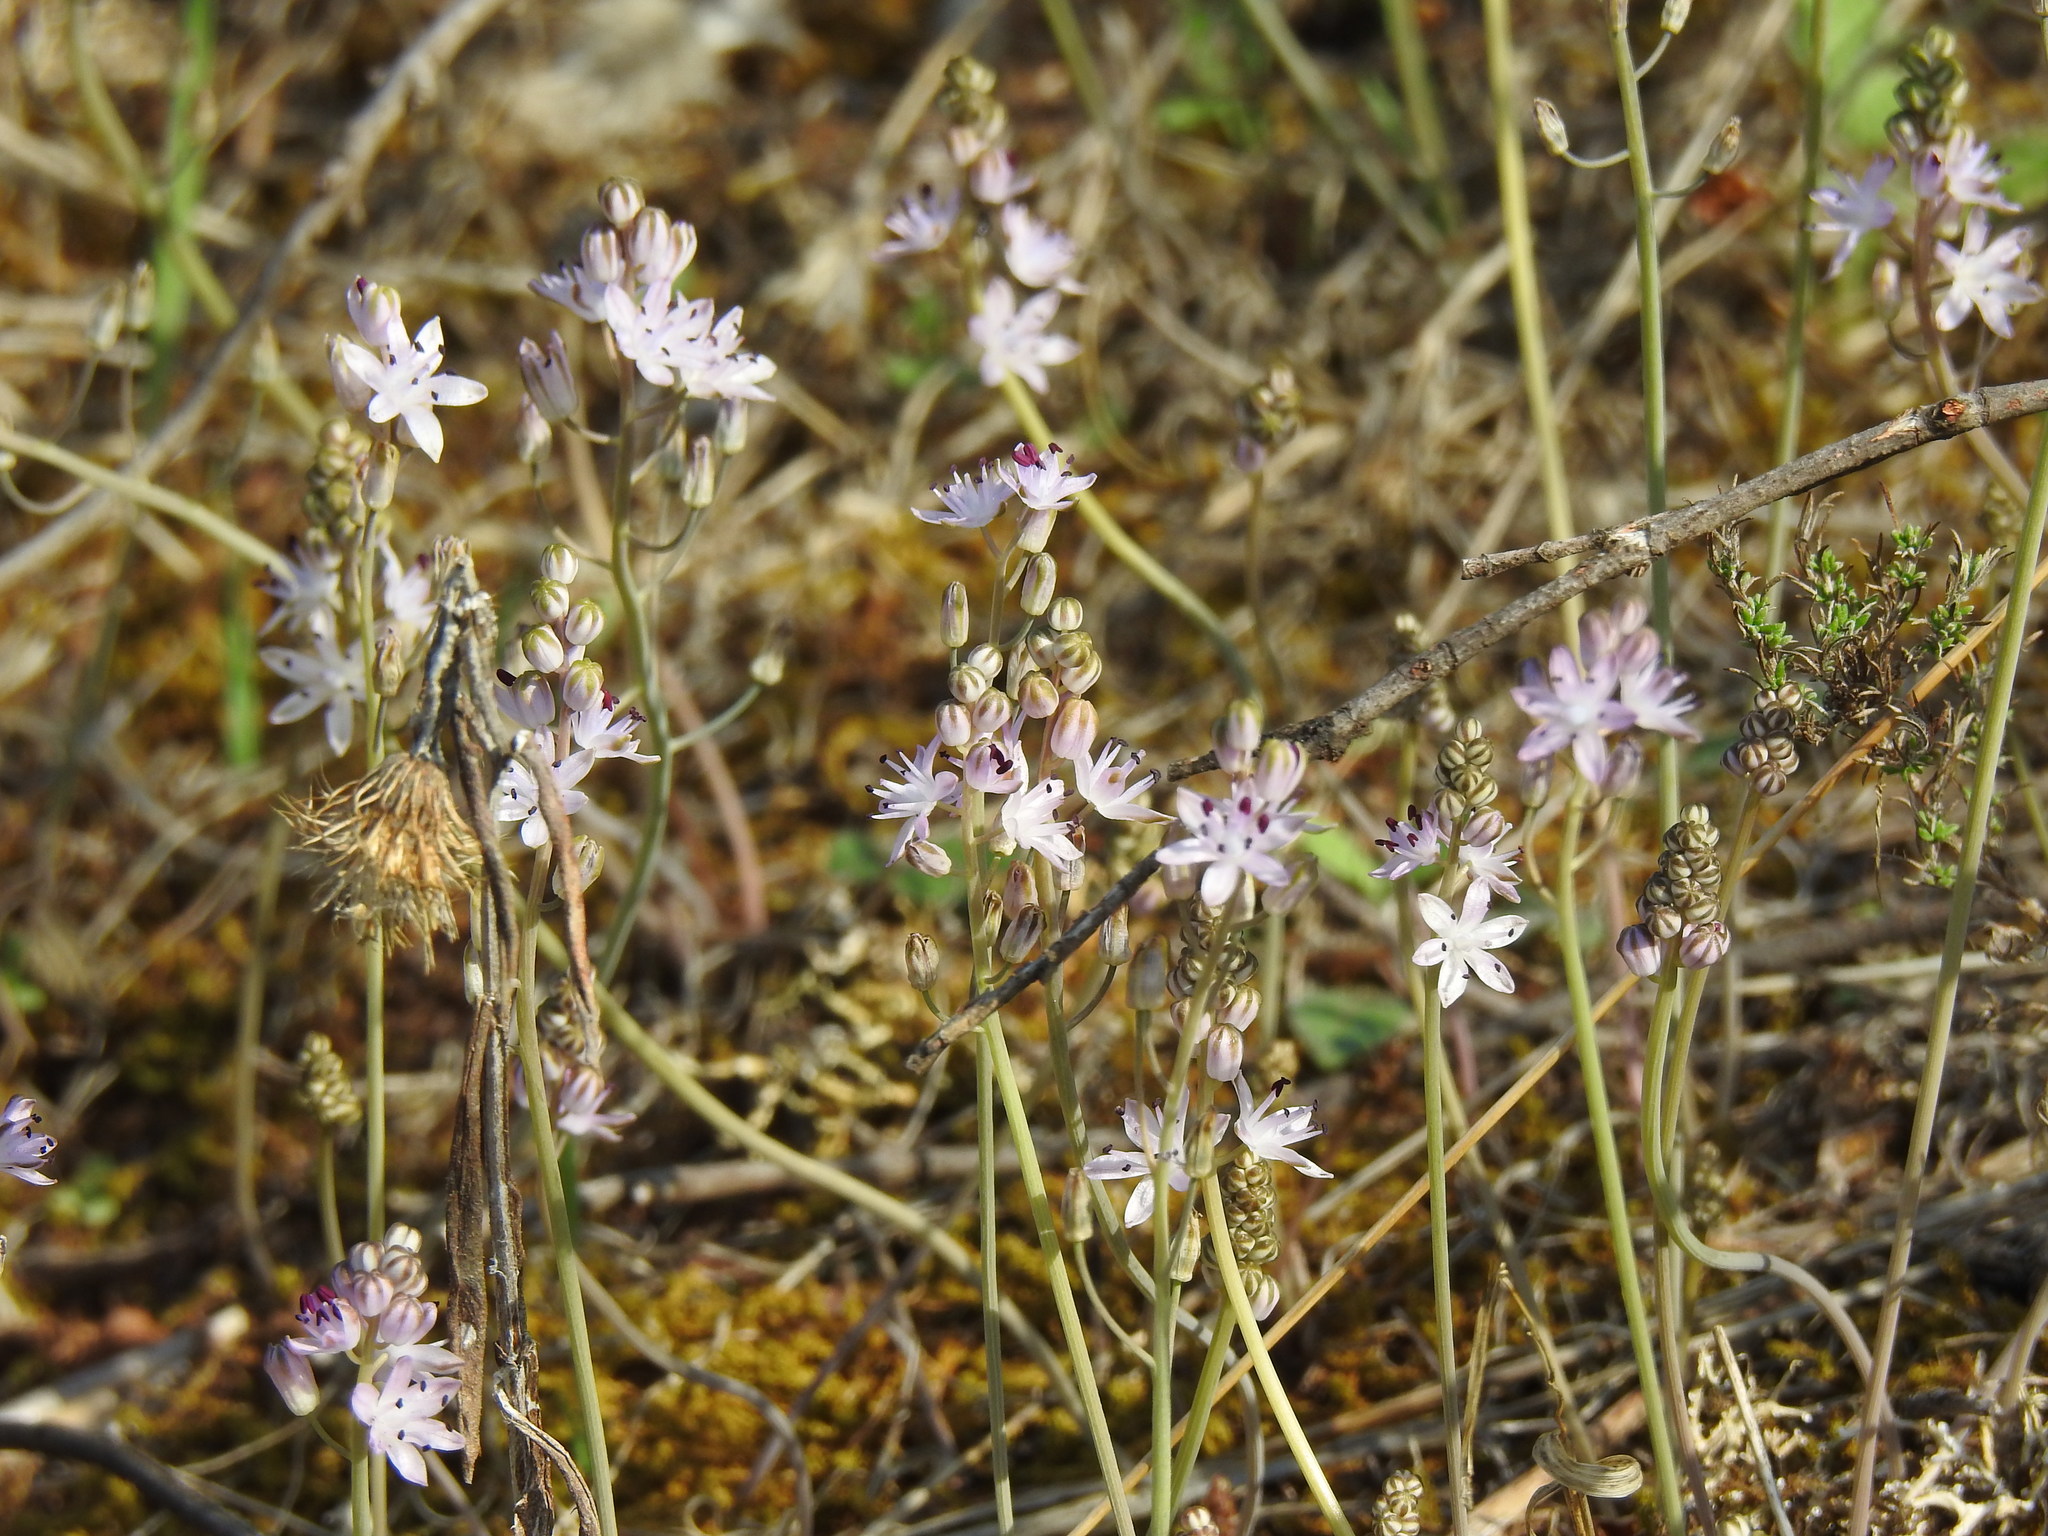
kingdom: Plantae
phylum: Tracheophyta
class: Liliopsida
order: Asparagales
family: Asparagaceae
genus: Prospero
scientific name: Prospero autumnale
